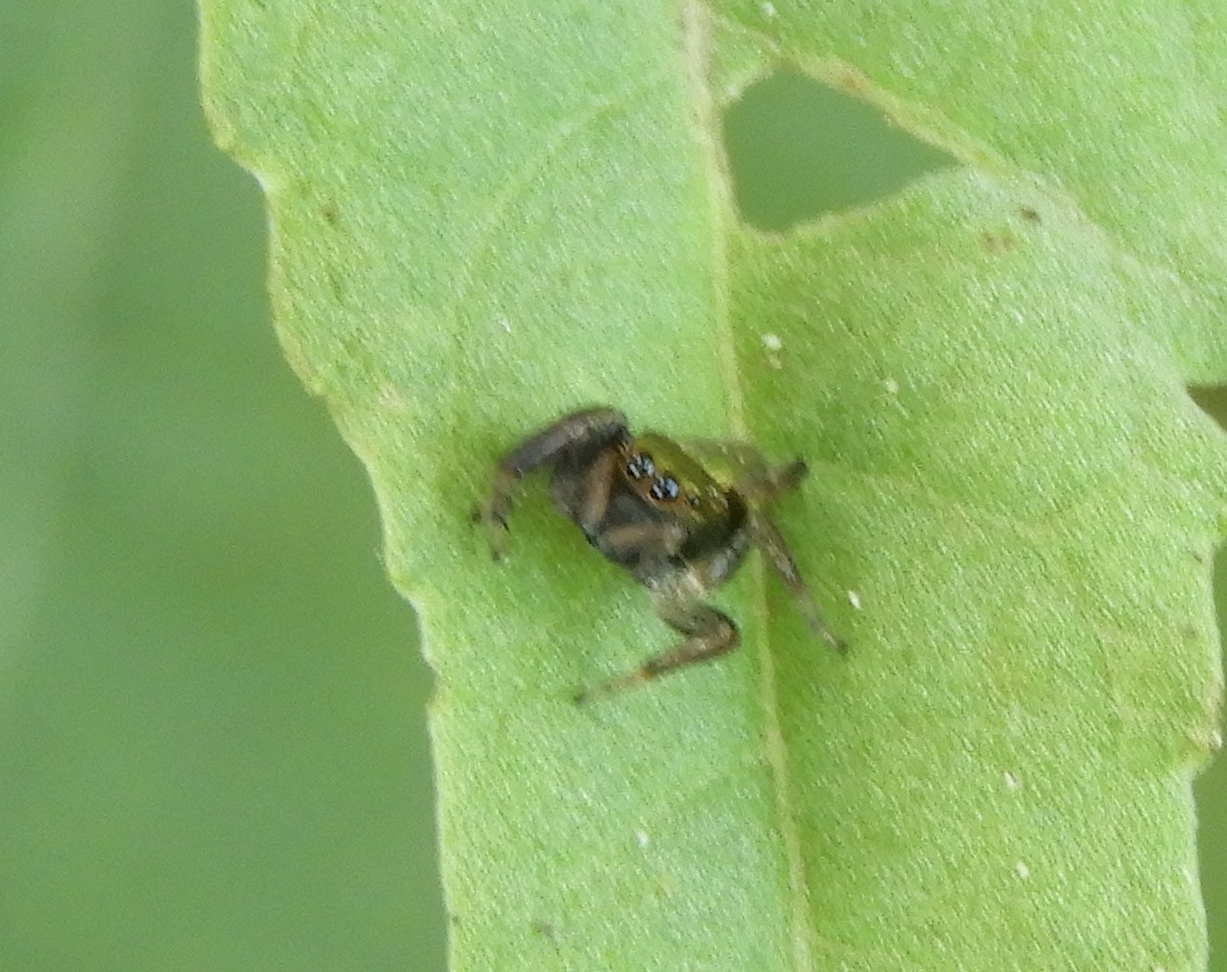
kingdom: Animalia
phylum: Arthropoda
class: Arachnida
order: Araneae
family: Salticidae
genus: Messua
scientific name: Messua limbata
